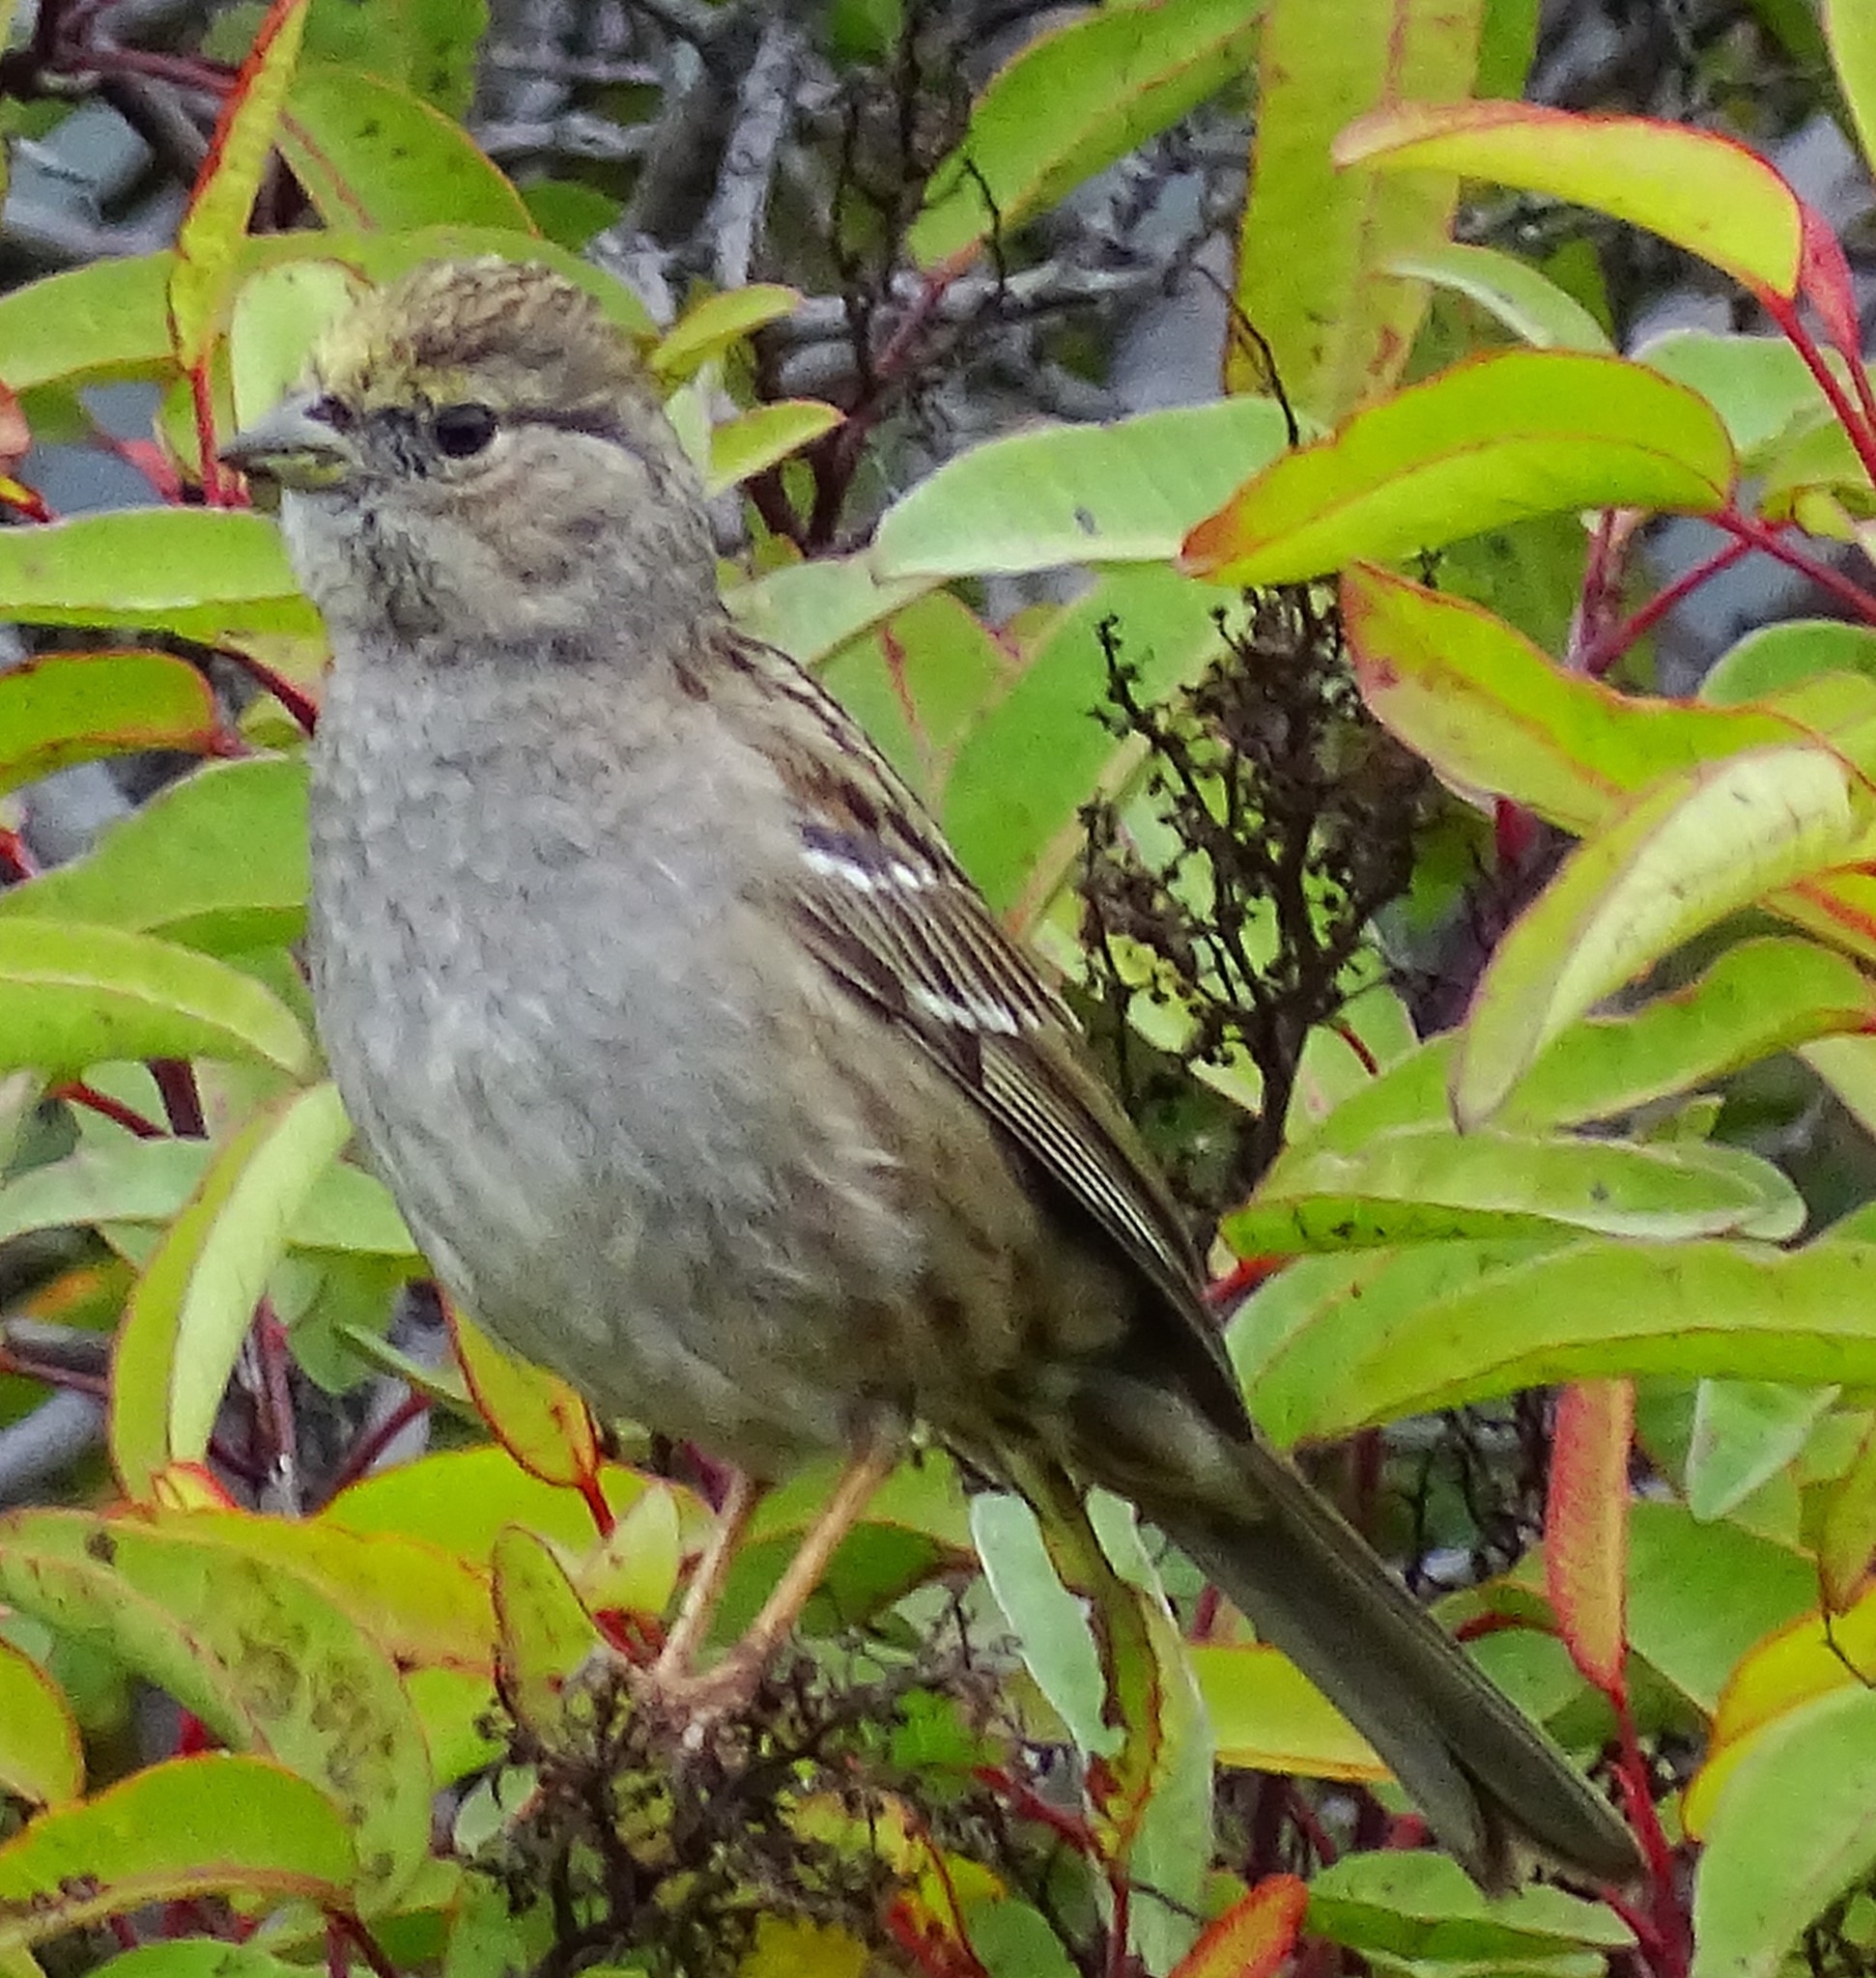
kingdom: Animalia
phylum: Chordata
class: Aves
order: Passeriformes
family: Passerellidae
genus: Zonotrichia
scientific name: Zonotrichia atricapilla
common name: Golden-crowned sparrow
